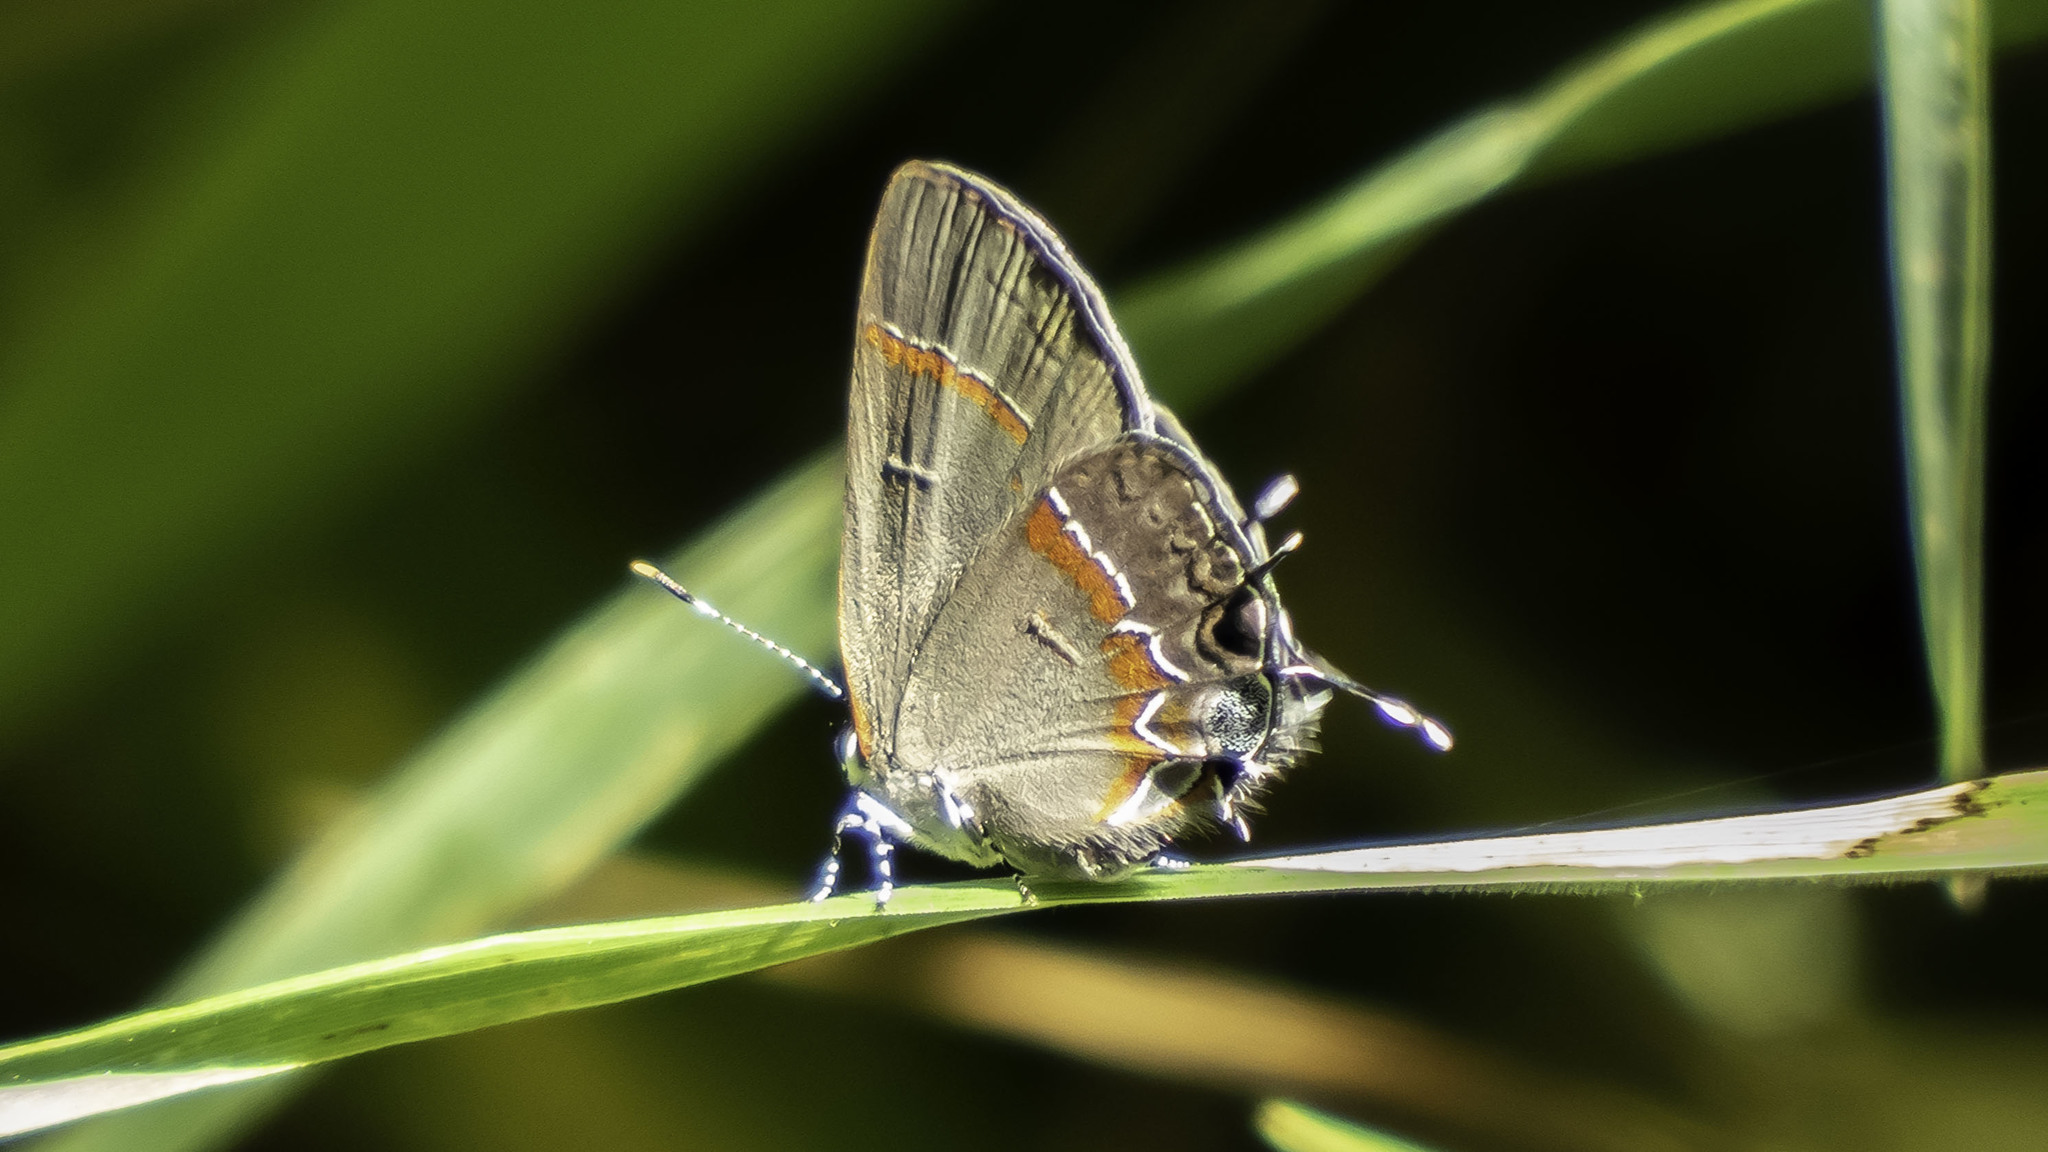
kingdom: Animalia
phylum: Arthropoda
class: Insecta
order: Lepidoptera
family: Lycaenidae
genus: Calycopis
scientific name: Calycopis cecrops
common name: Red-banded hairstreak
